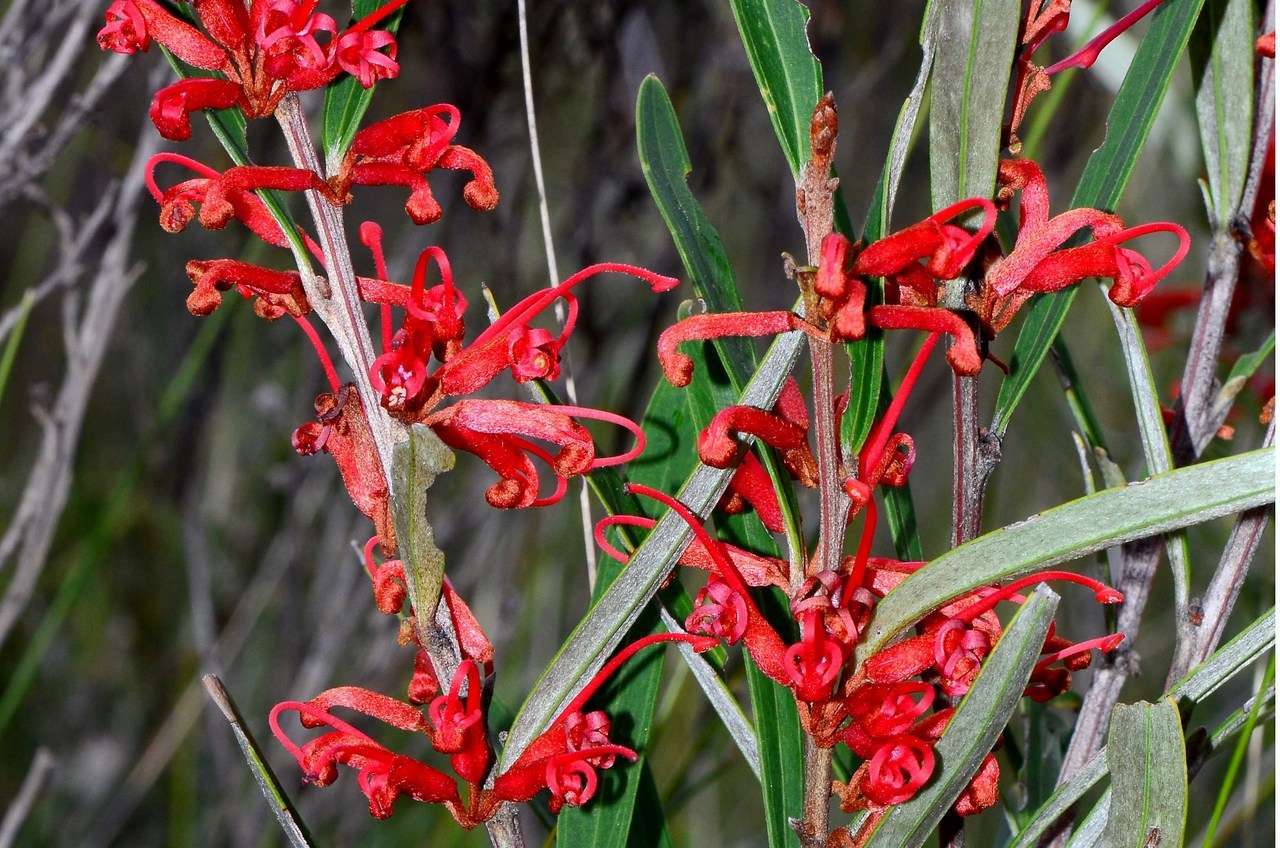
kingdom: Plantae
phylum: Tracheophyta
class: Magnoliopsida
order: Proteales
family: Proteaceae
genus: Grevillea
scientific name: Grevillea dimorpha
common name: Flame grevillea
